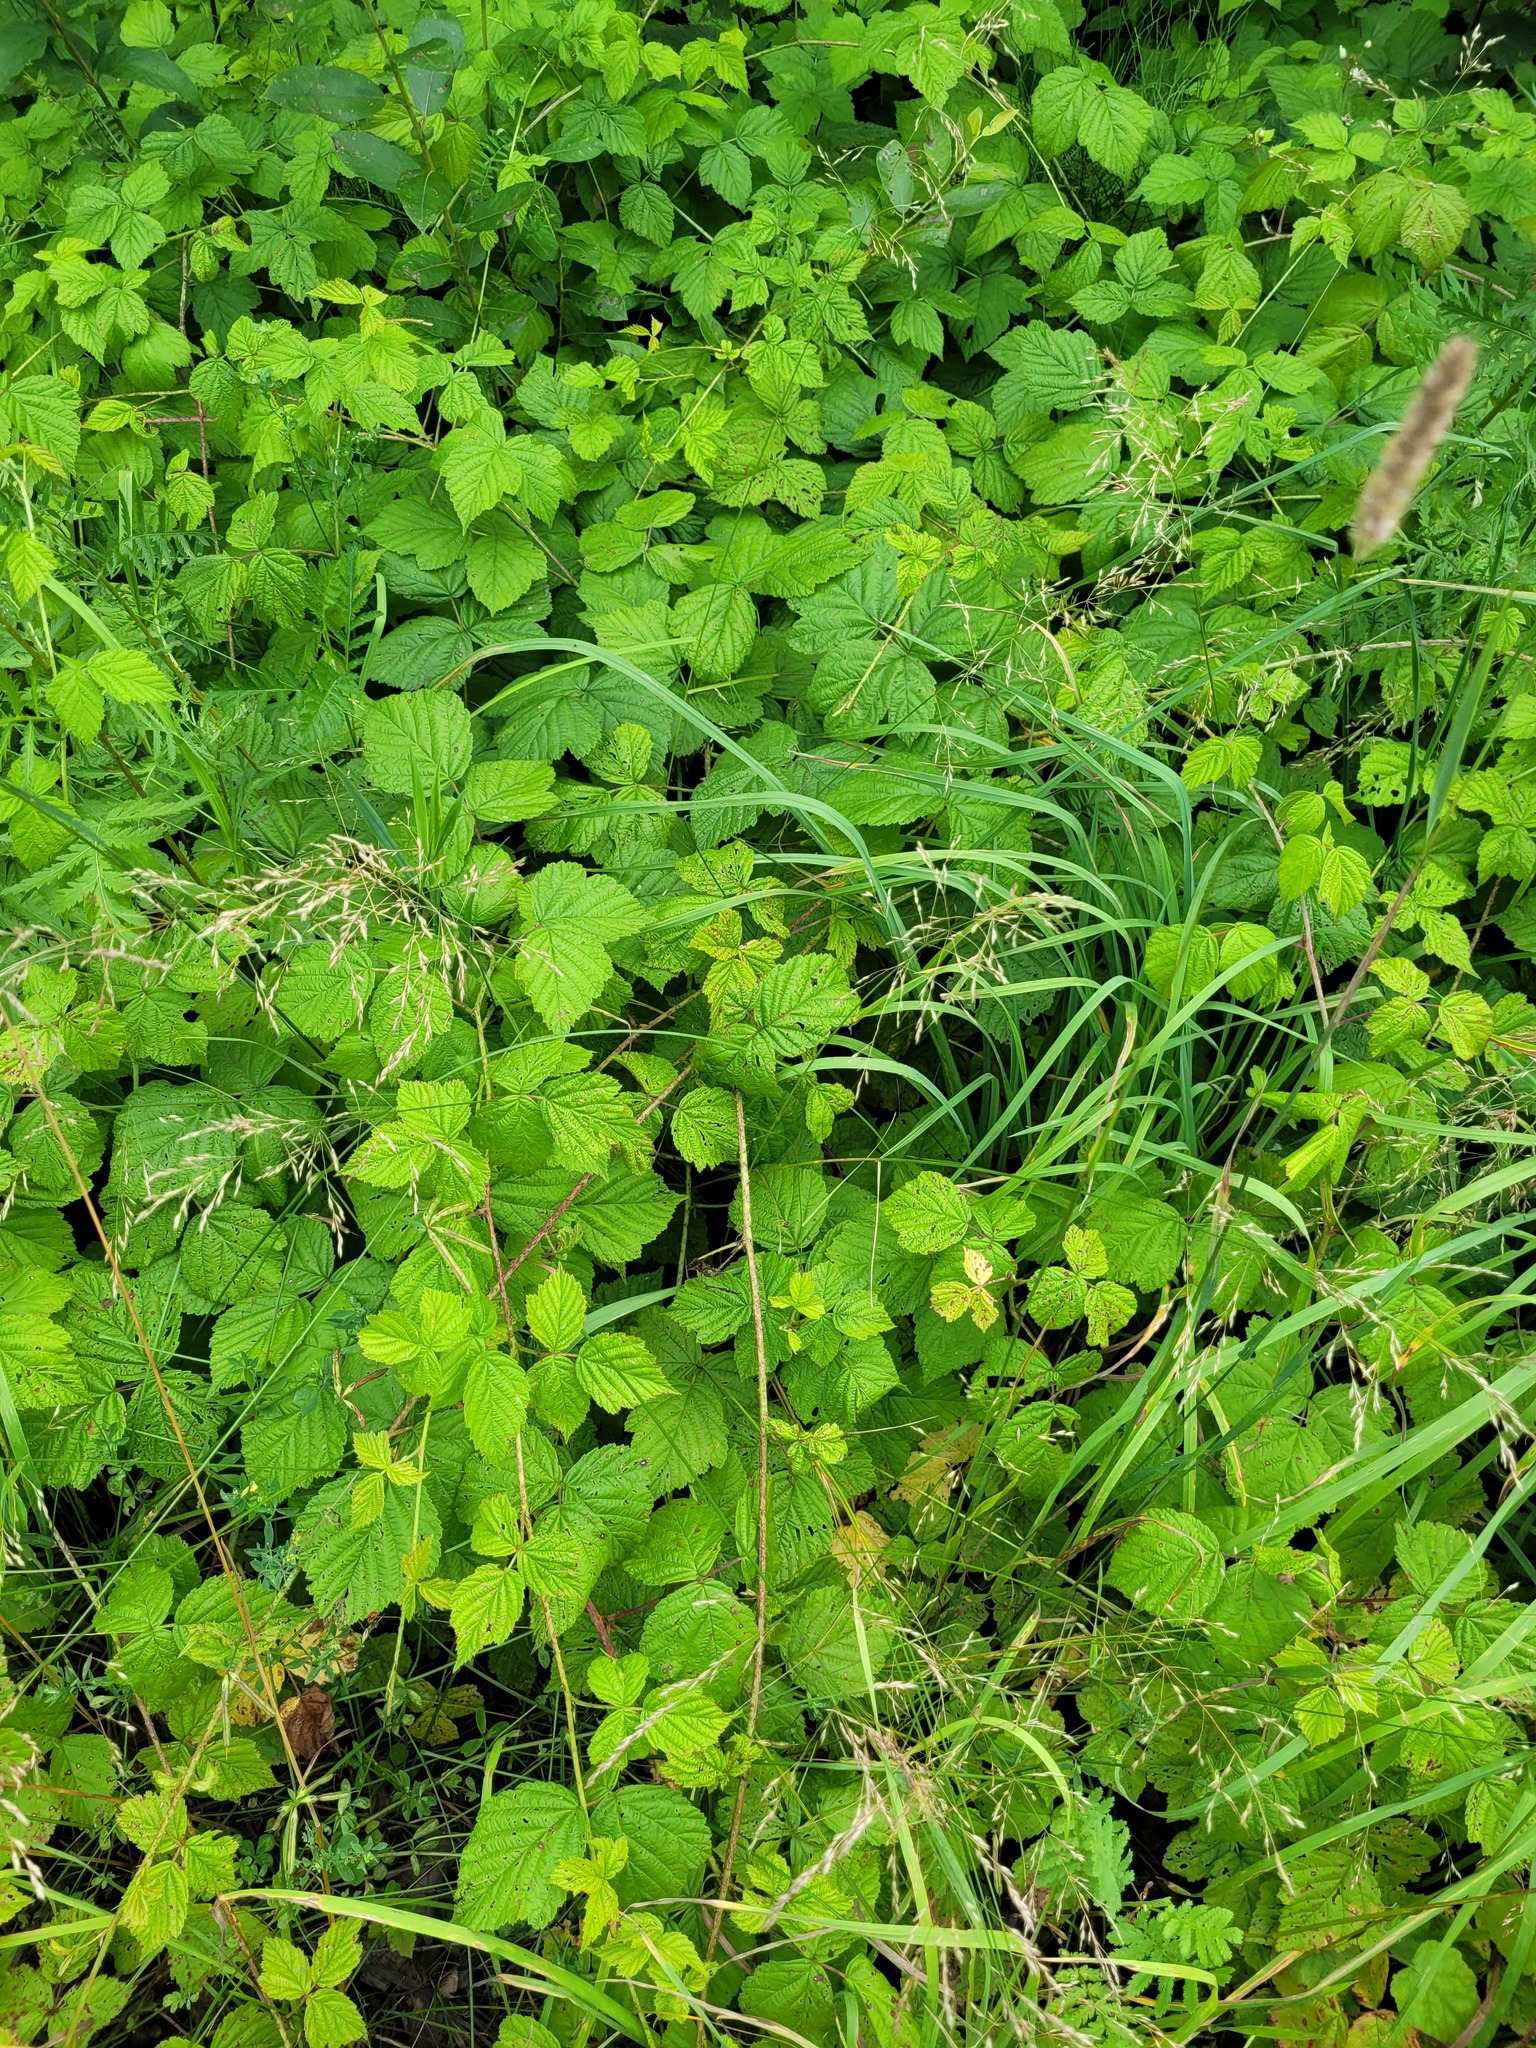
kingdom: Plantae
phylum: Tracheophyta
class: Magnoliopsida
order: Rosales
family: Rosaceae
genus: Rubus
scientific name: Rubus caesius
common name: Dewberry
